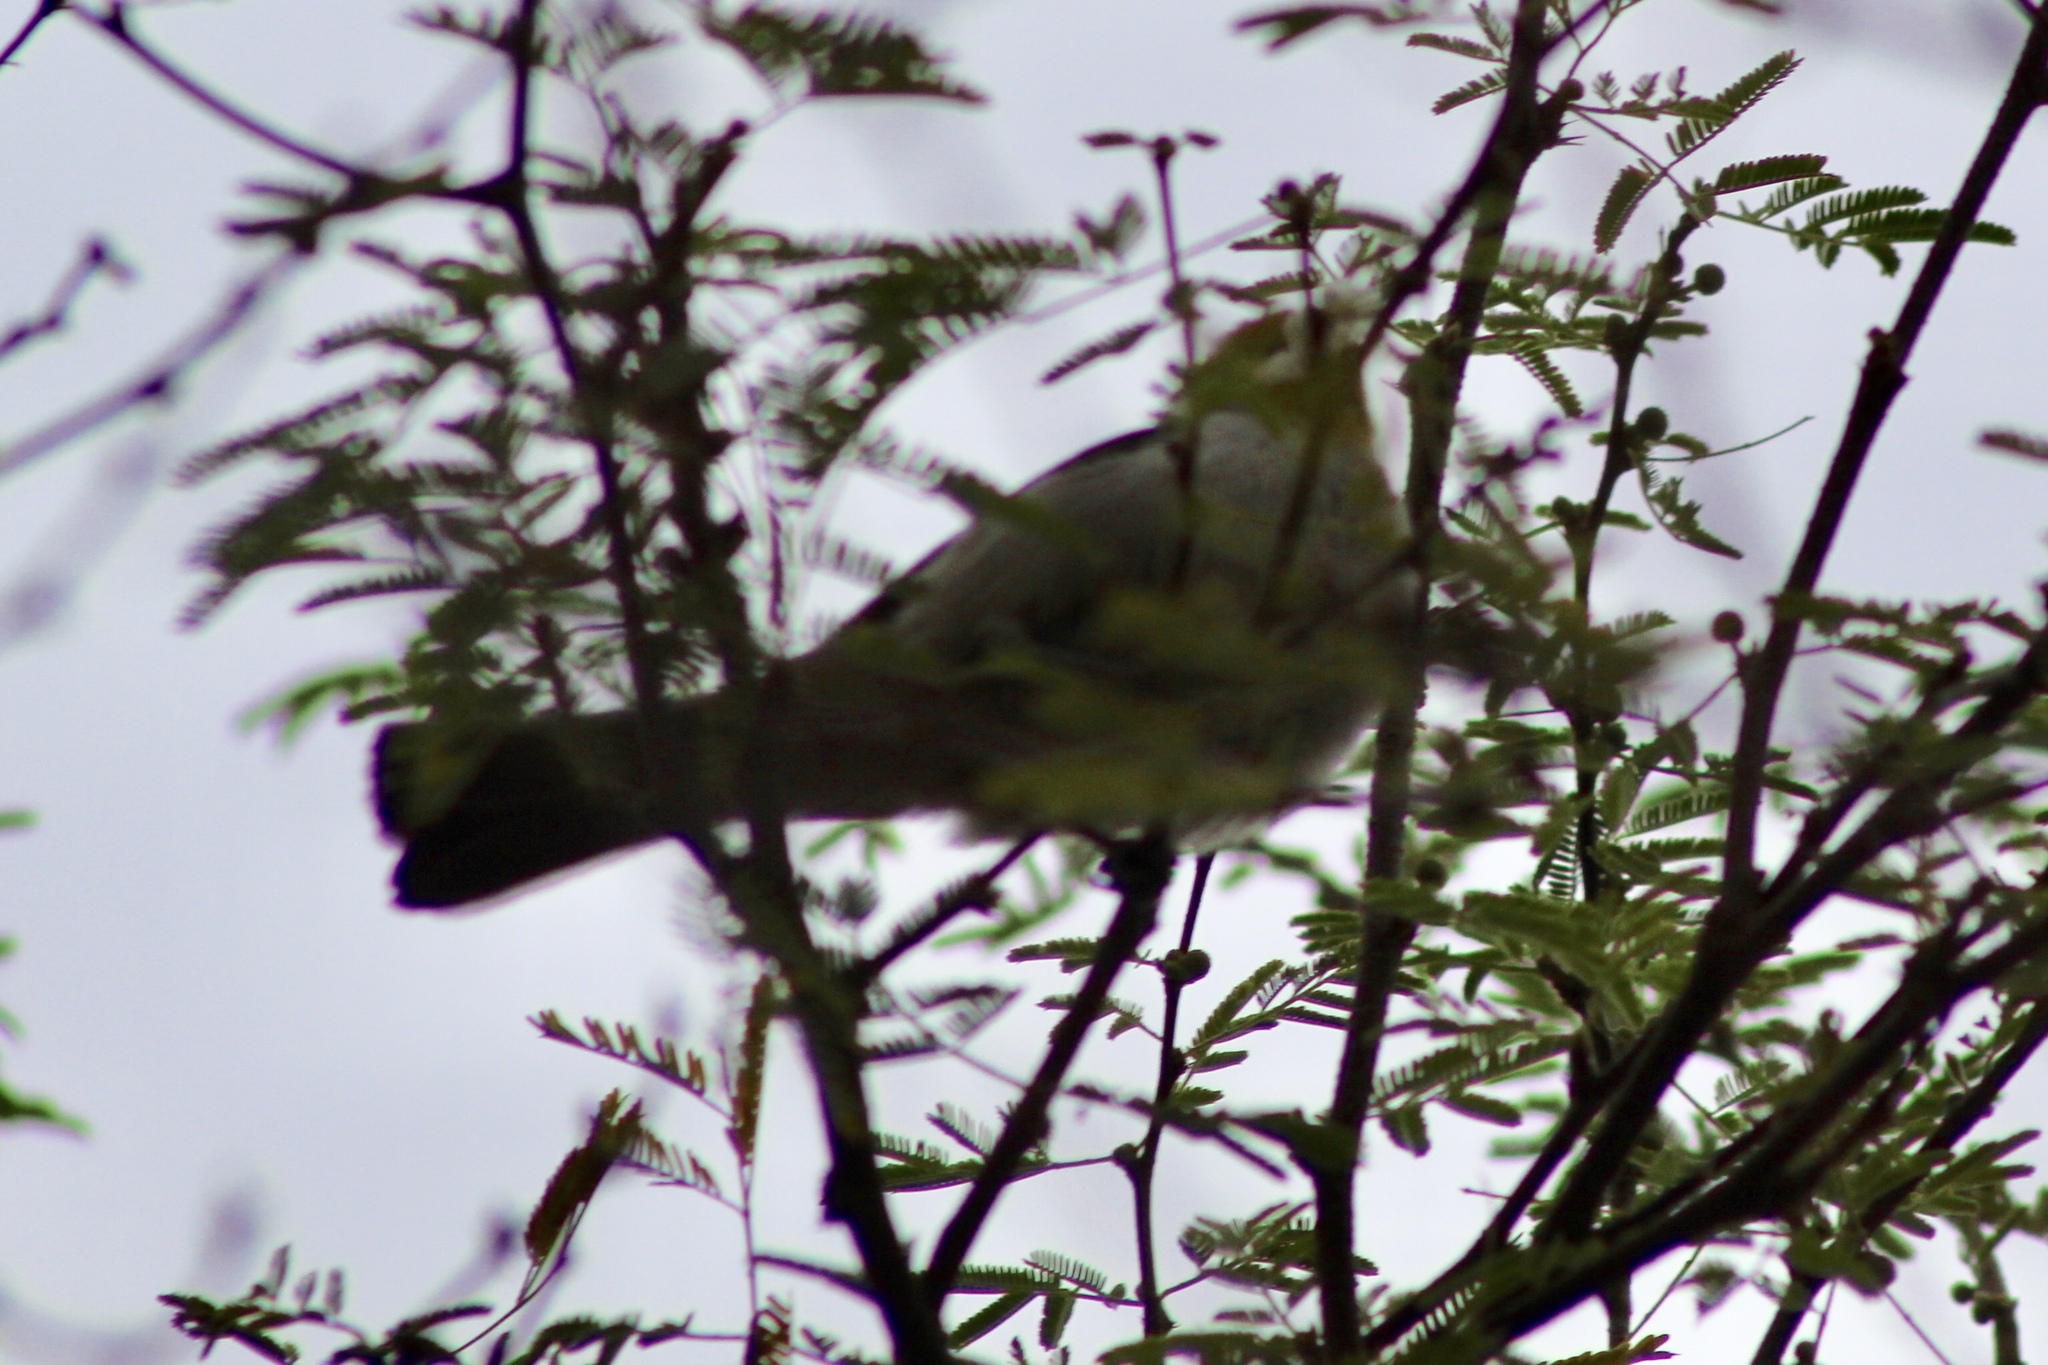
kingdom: Animalia
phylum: Chordata
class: Aves
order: Passeriformes
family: Remizidae
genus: Auriparus
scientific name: Auriparus flaviceps
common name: Verdin
